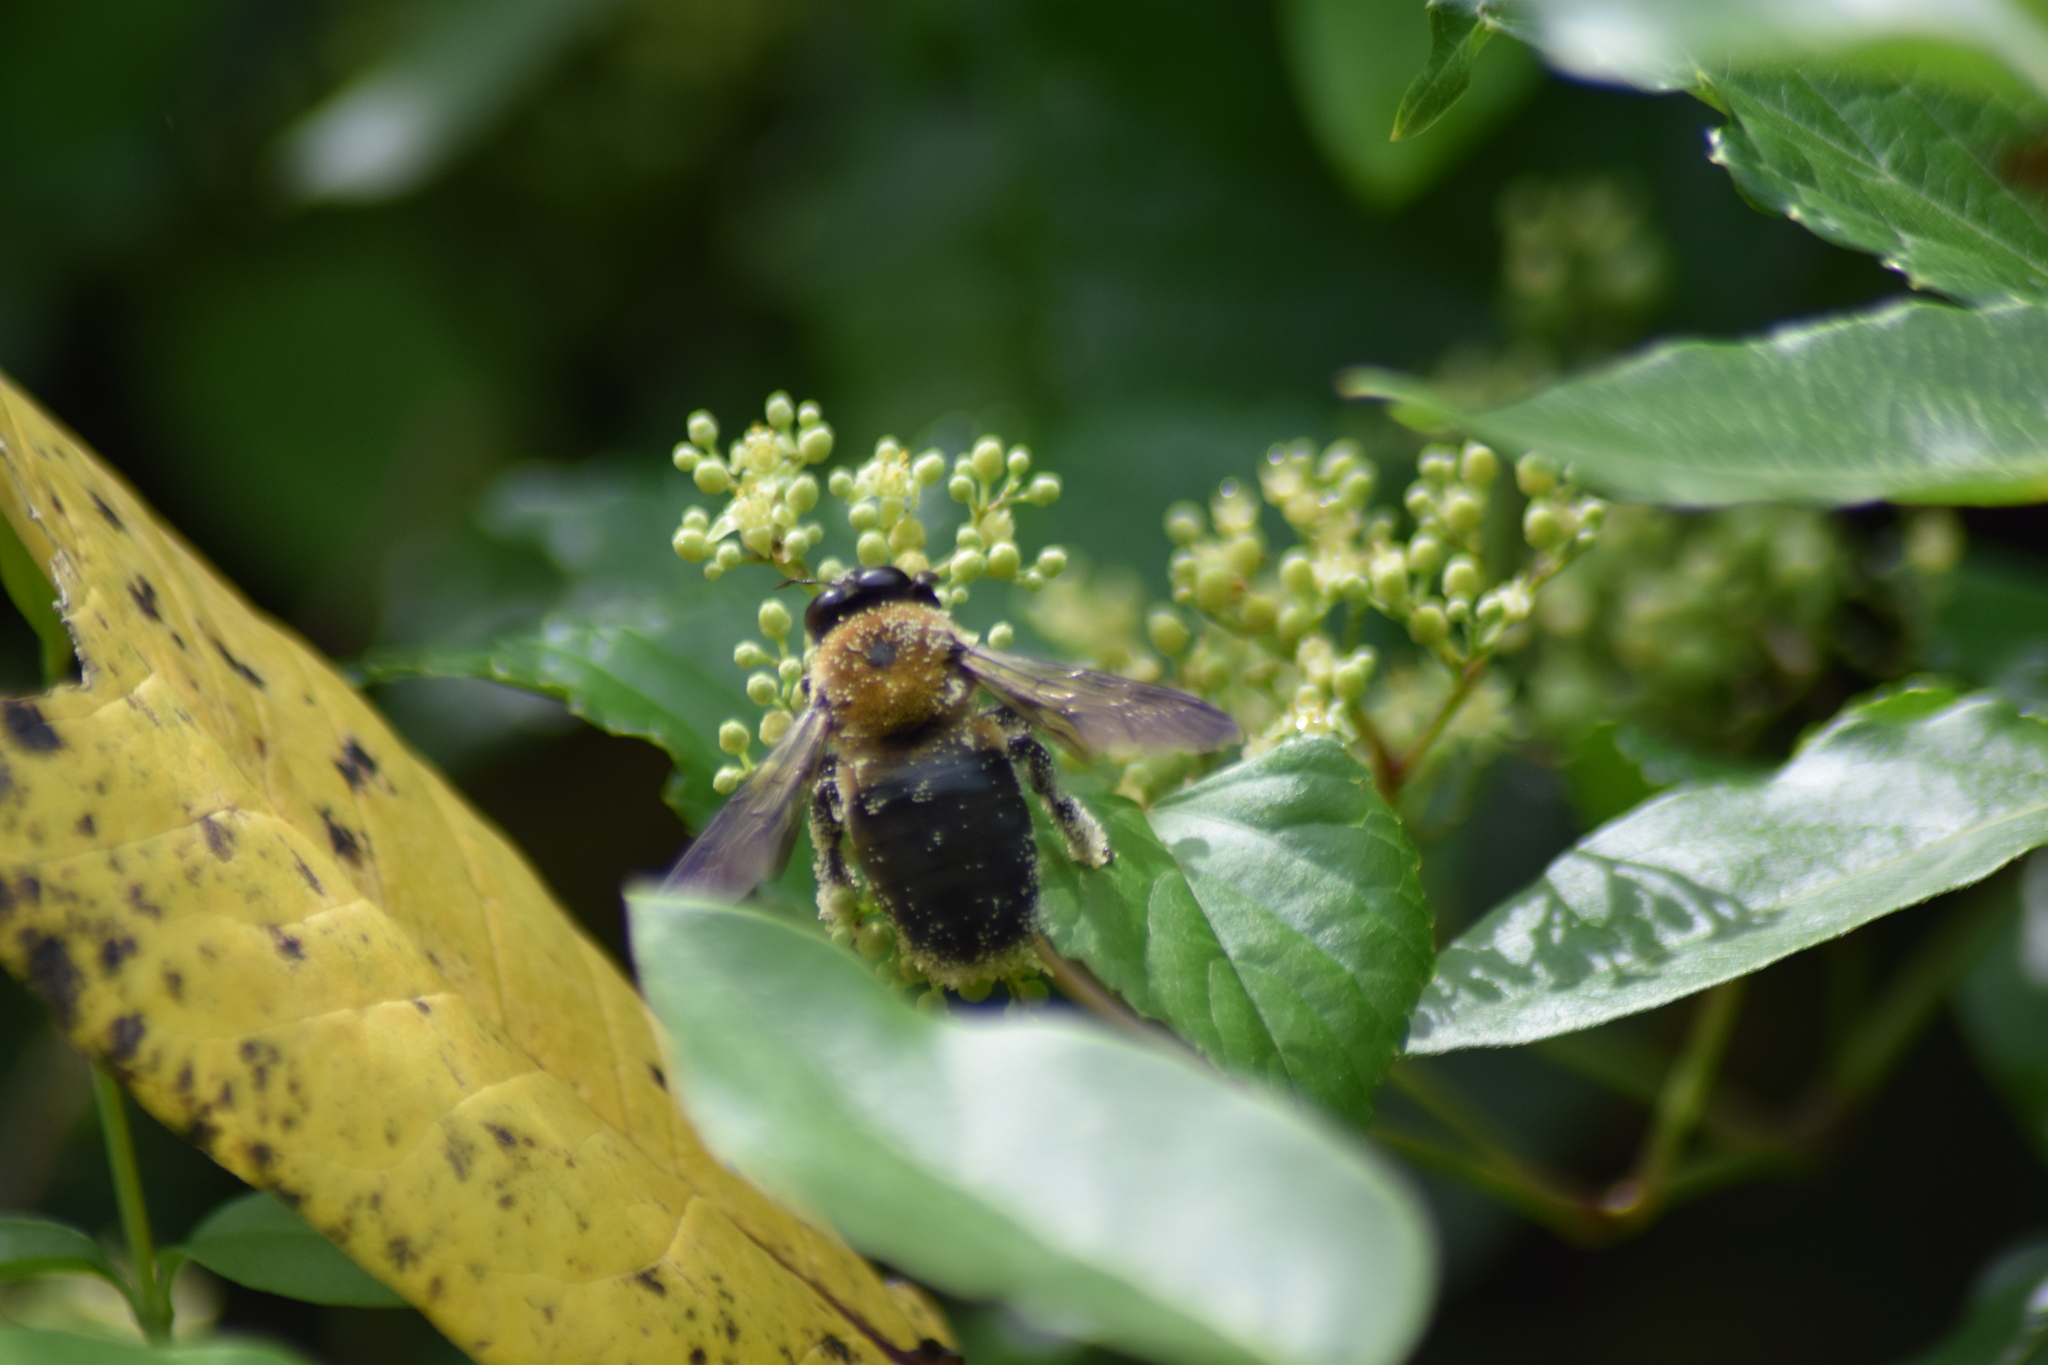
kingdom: Animalia
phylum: Arthropoda
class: Insecta
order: Hymenoptera
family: Apidae
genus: Xylocopa
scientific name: Xylocopa virginica
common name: Carpenter bee
